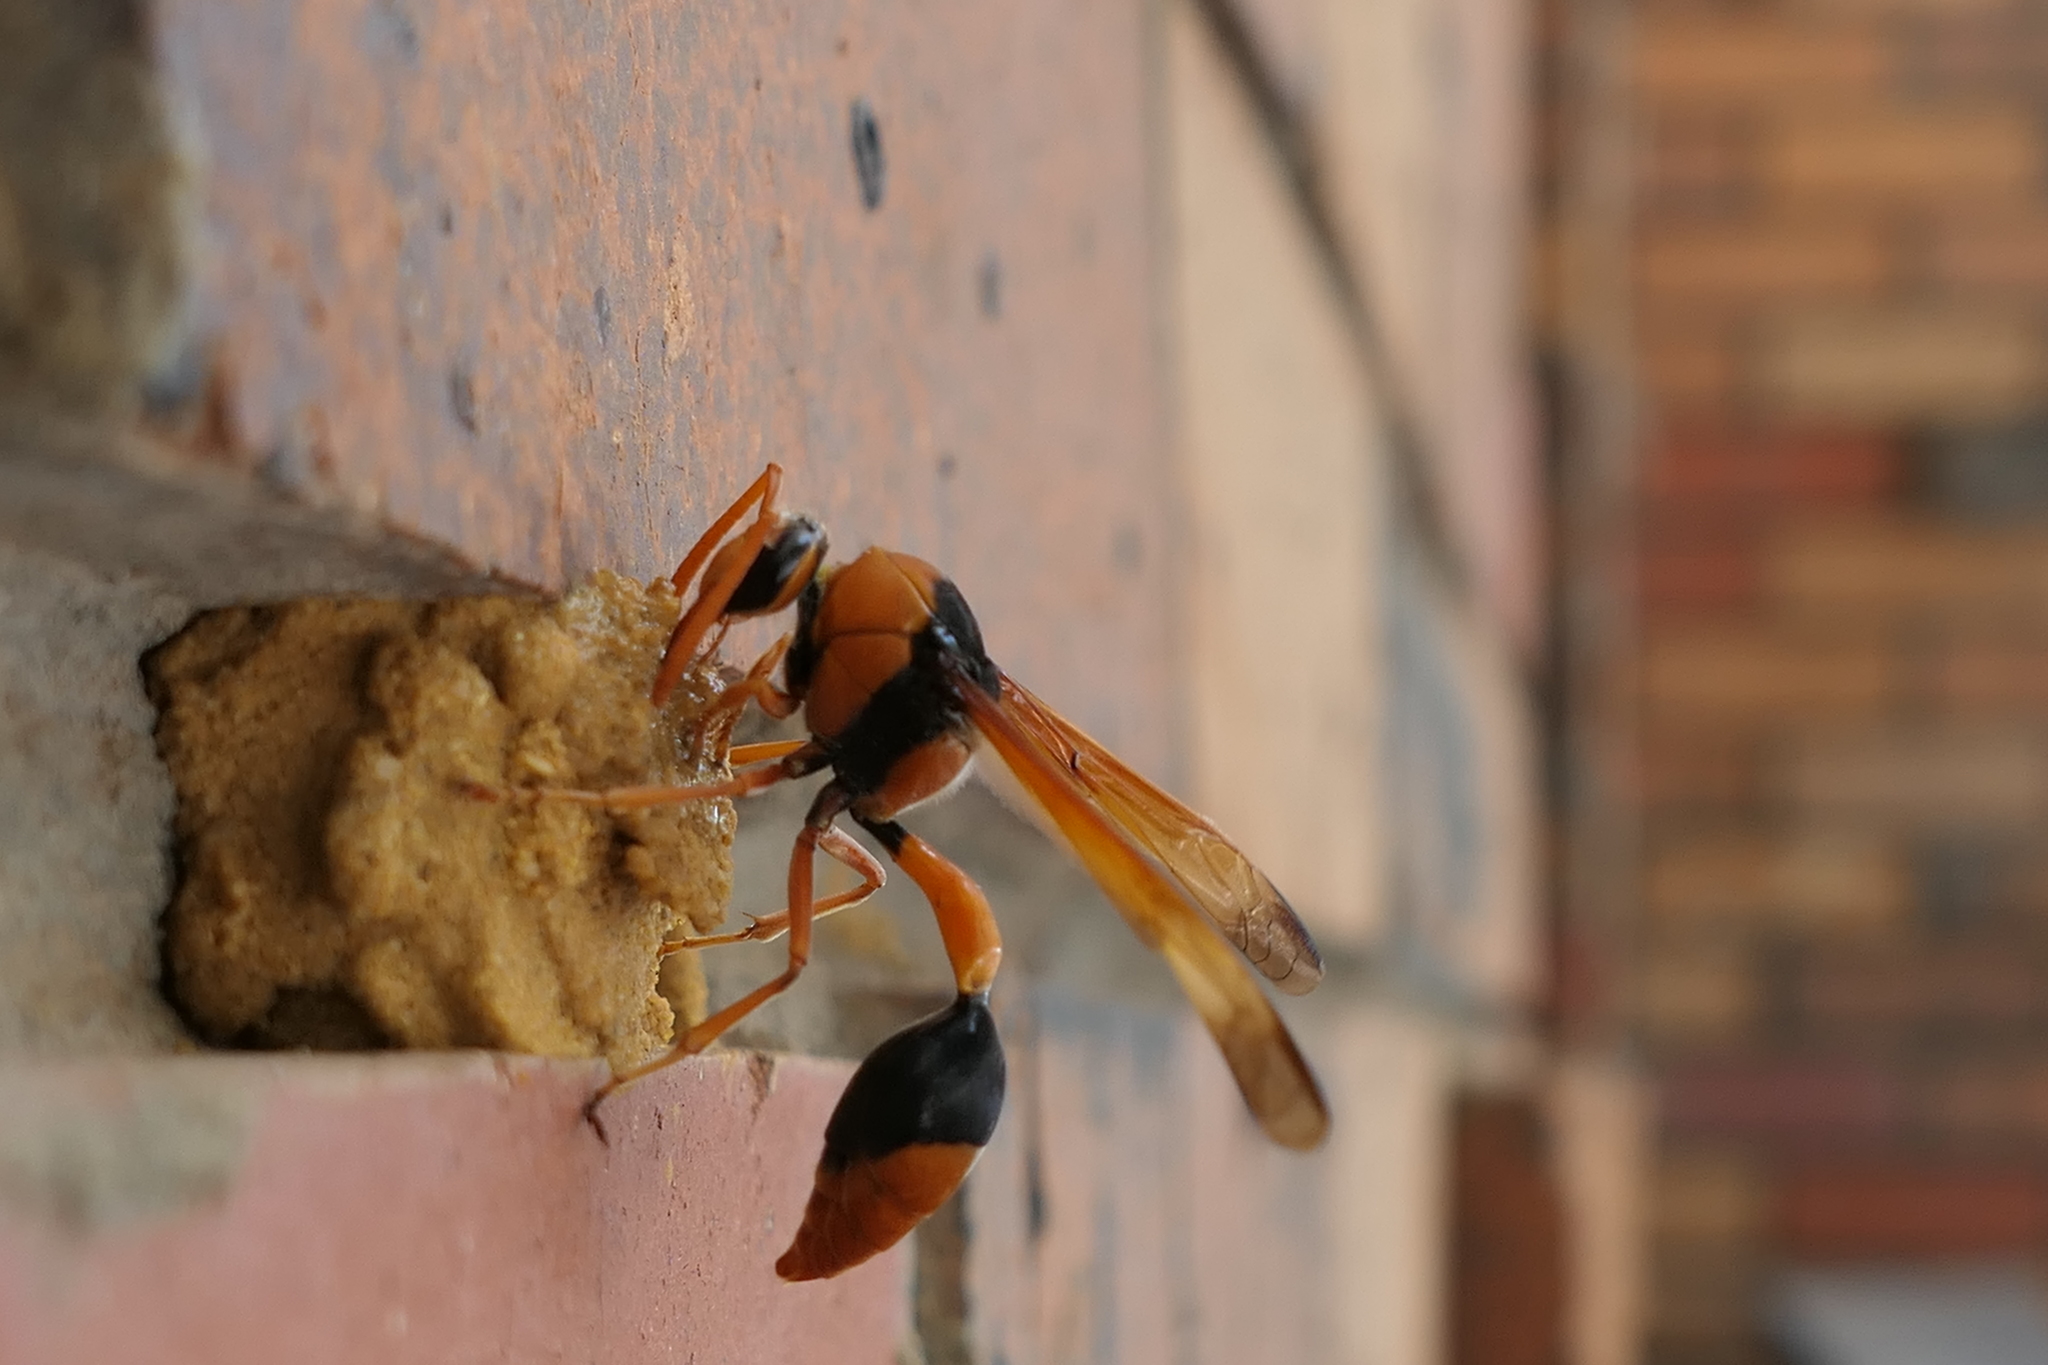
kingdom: Animalia
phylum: Arthropoda
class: Insecta
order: Hymenoptera
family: Eumenidae
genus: Delta
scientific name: Delta latreillei
